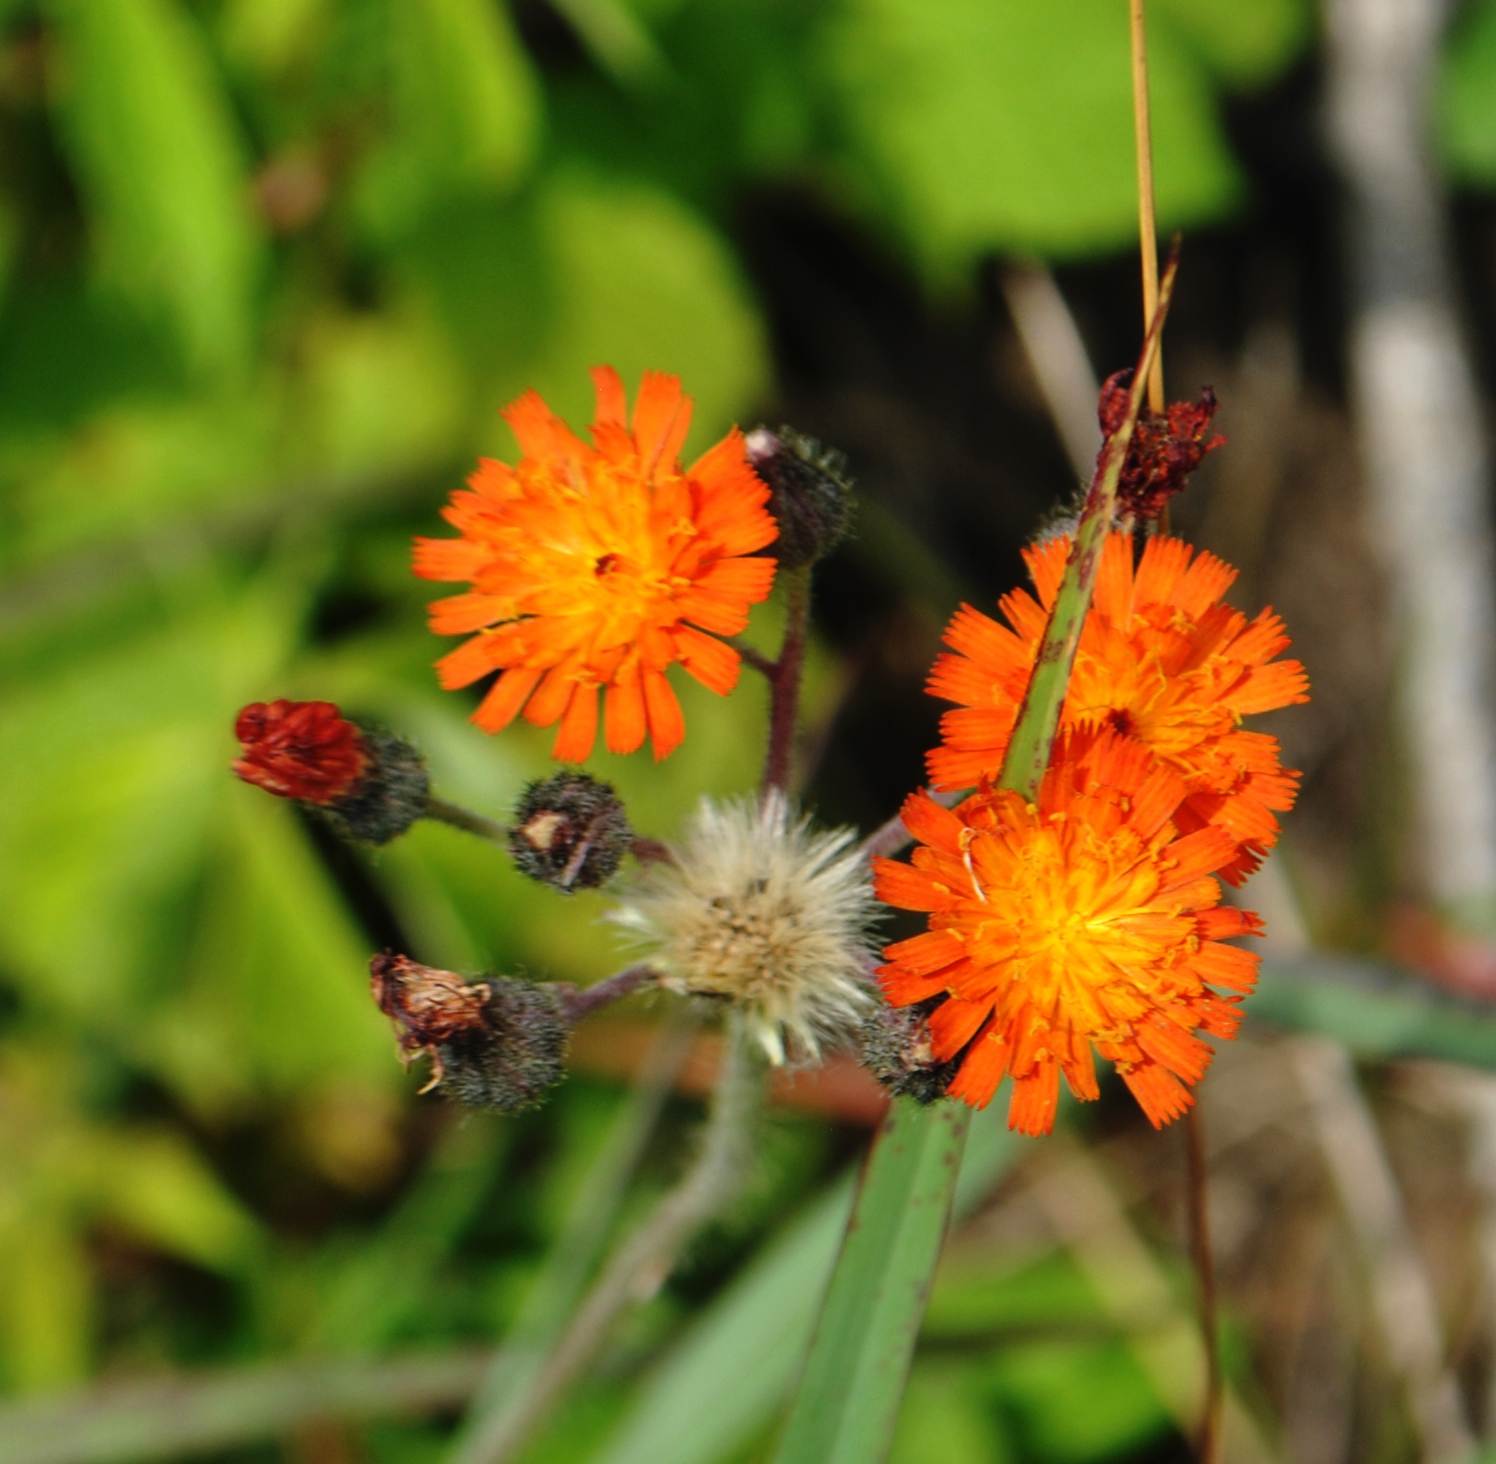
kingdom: Plantae
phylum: Tracheophyta
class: Magnoliopsida
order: Asterales
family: Asteraceae
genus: Pilosella
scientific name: Pilosella aurantiaca
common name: Fox-and-cubs
